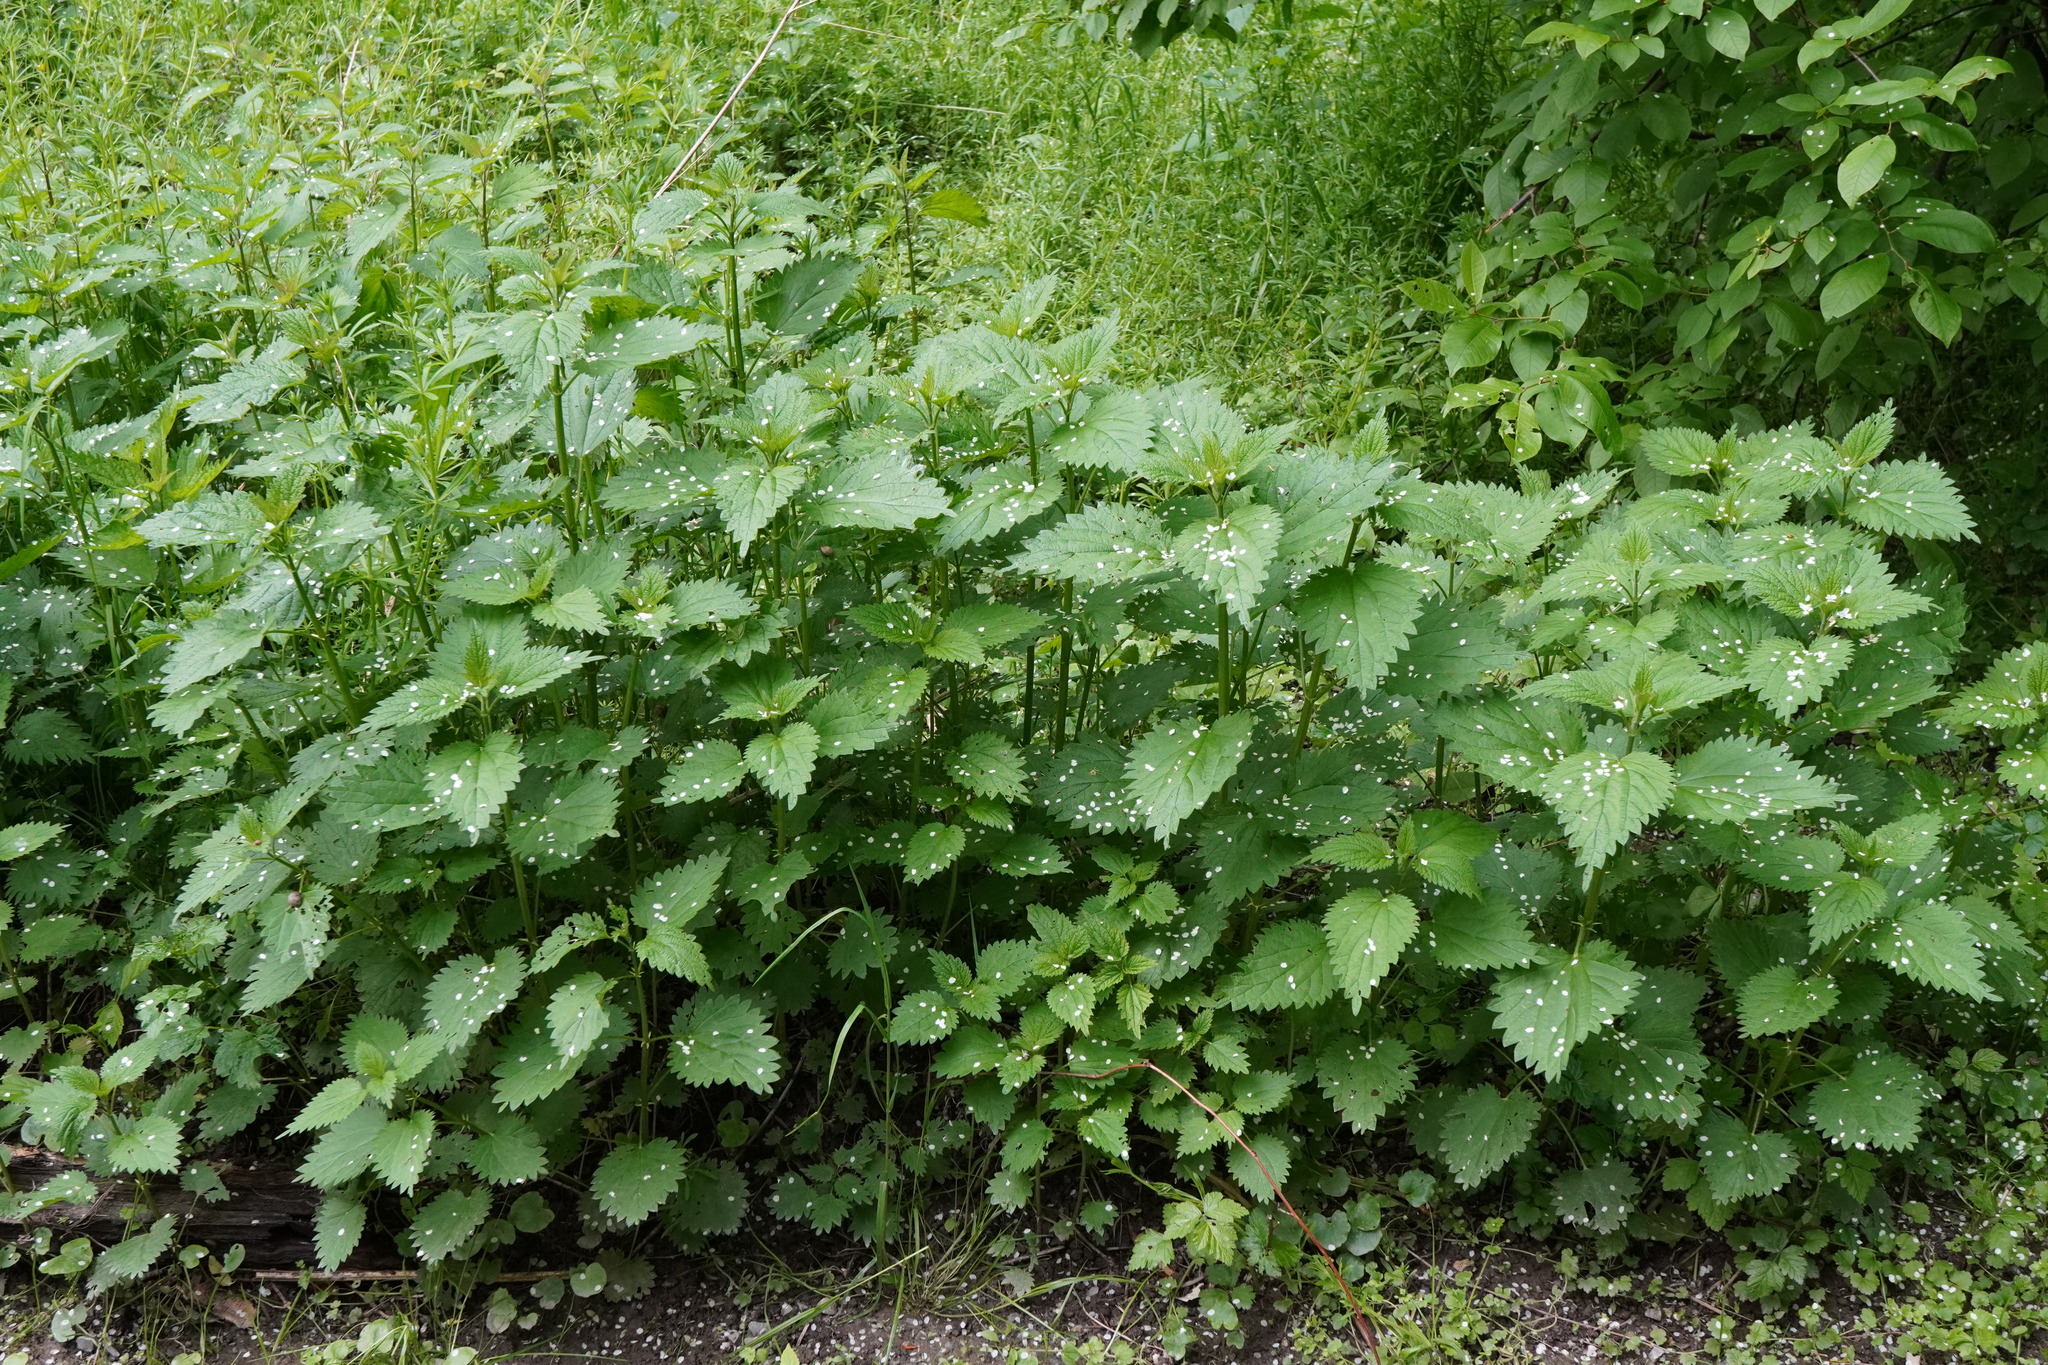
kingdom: Plantae
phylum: Tracheophyta
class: Magnoliopsida
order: Rosales
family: Urticaceae
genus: Urtica
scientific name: Urtica dioica
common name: Common nettle
